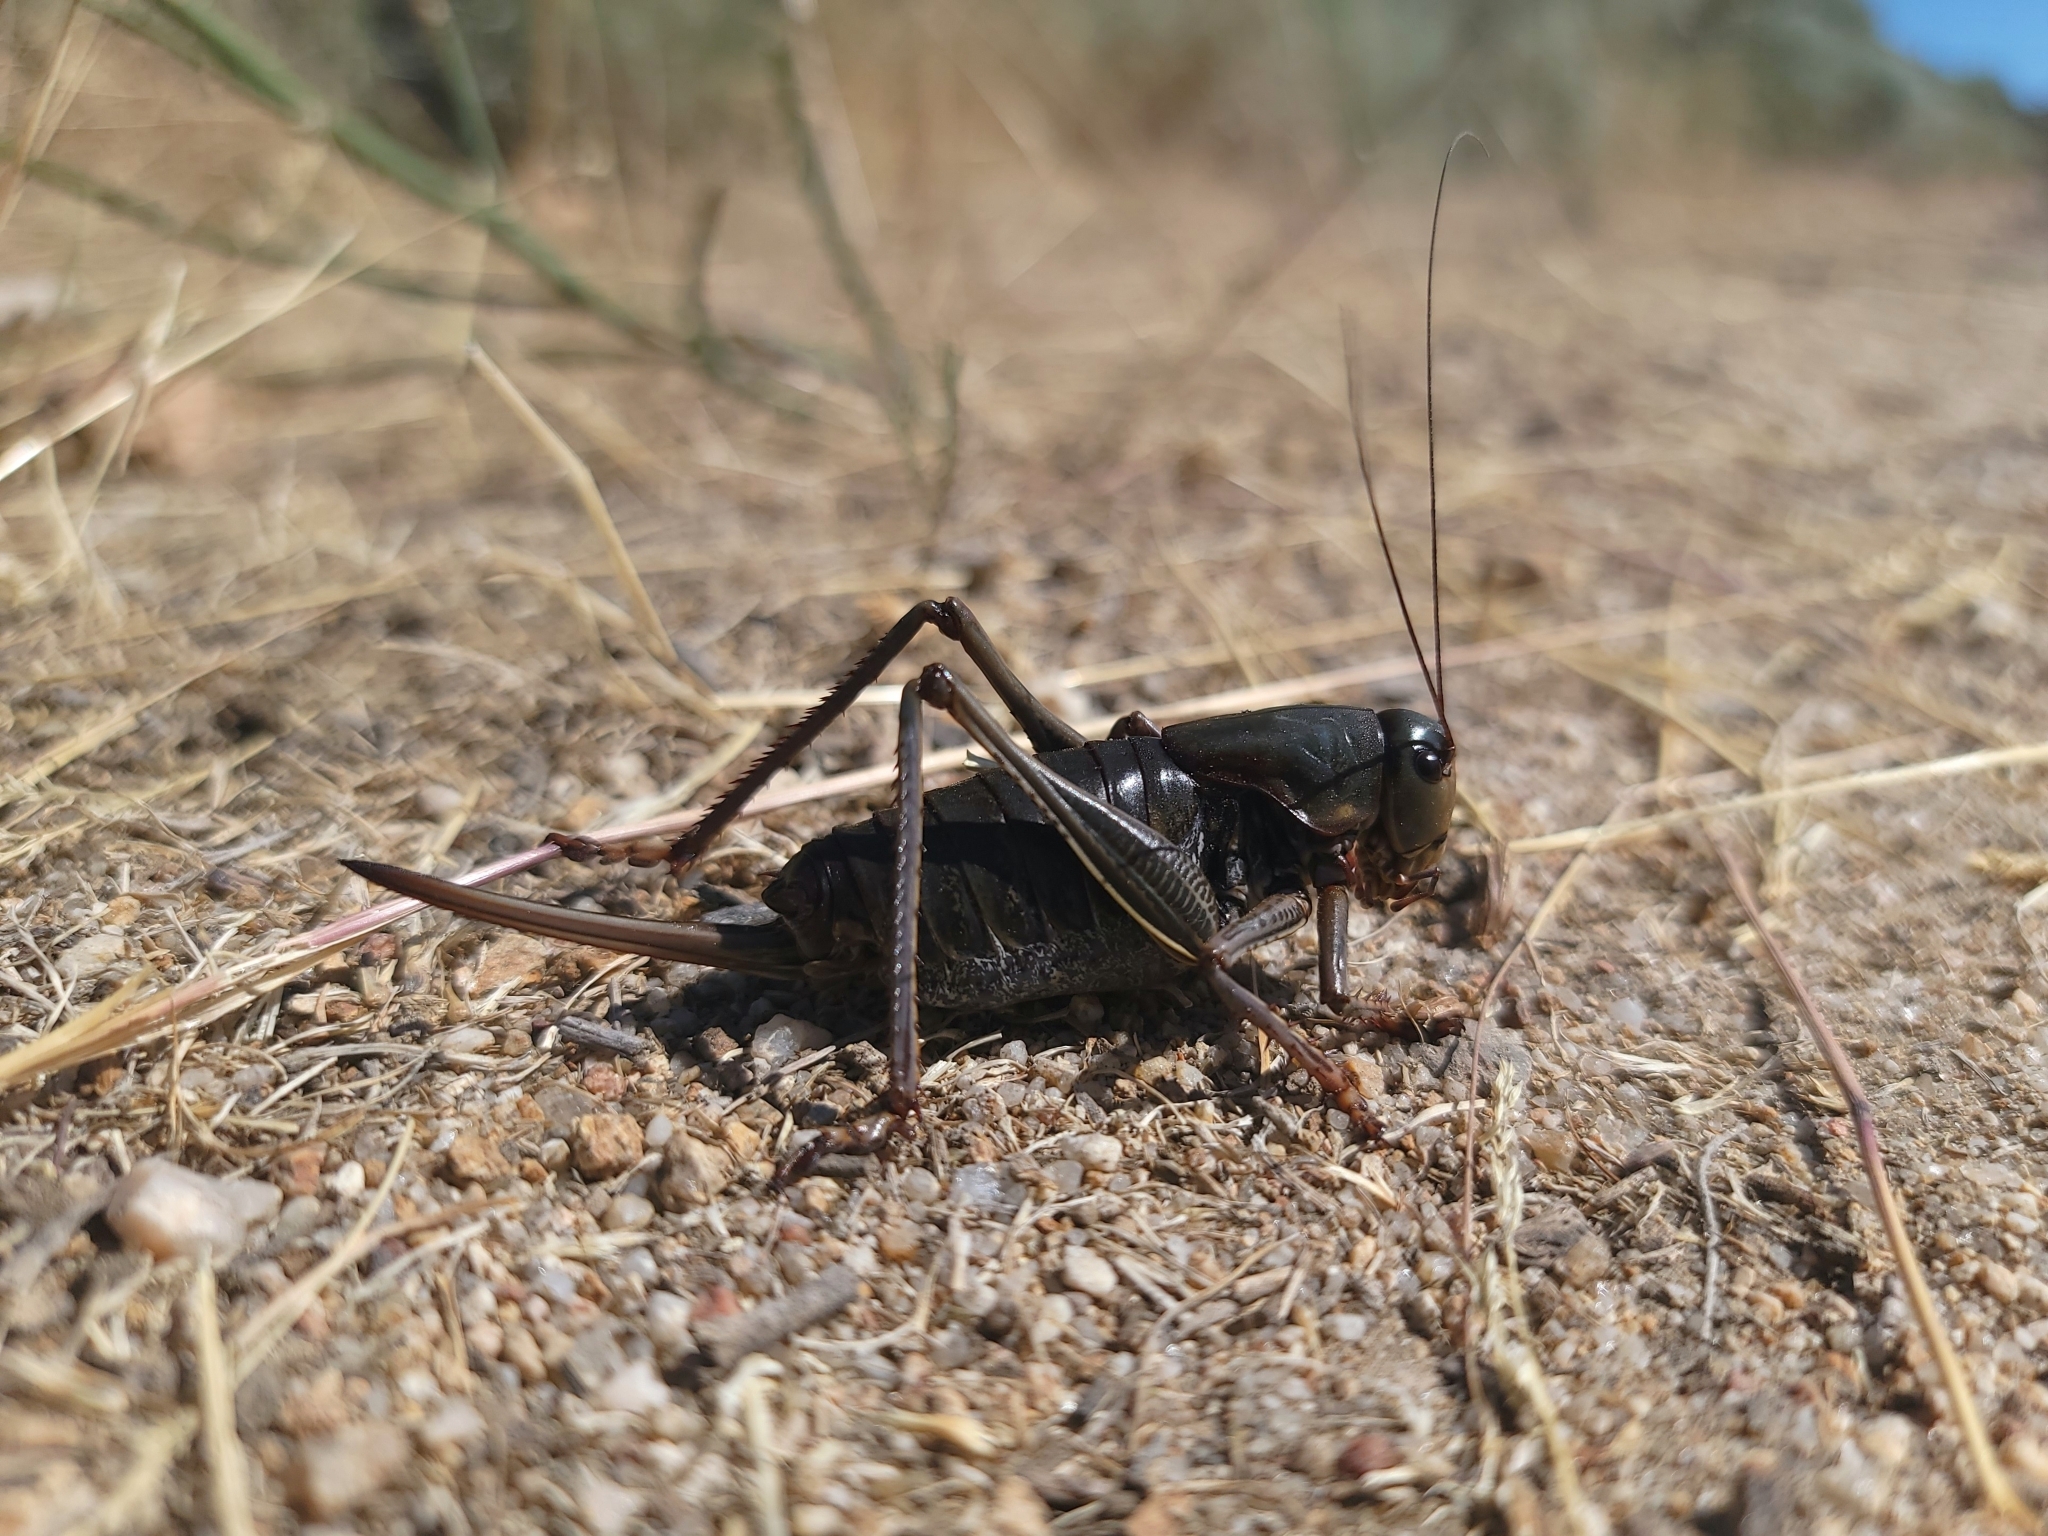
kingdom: Animalia
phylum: Arthropoda
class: Insecta
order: Orthoptera
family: Tettigoniidae
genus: Anabrus
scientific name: Anabrus simplex
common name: Mormon cricket
